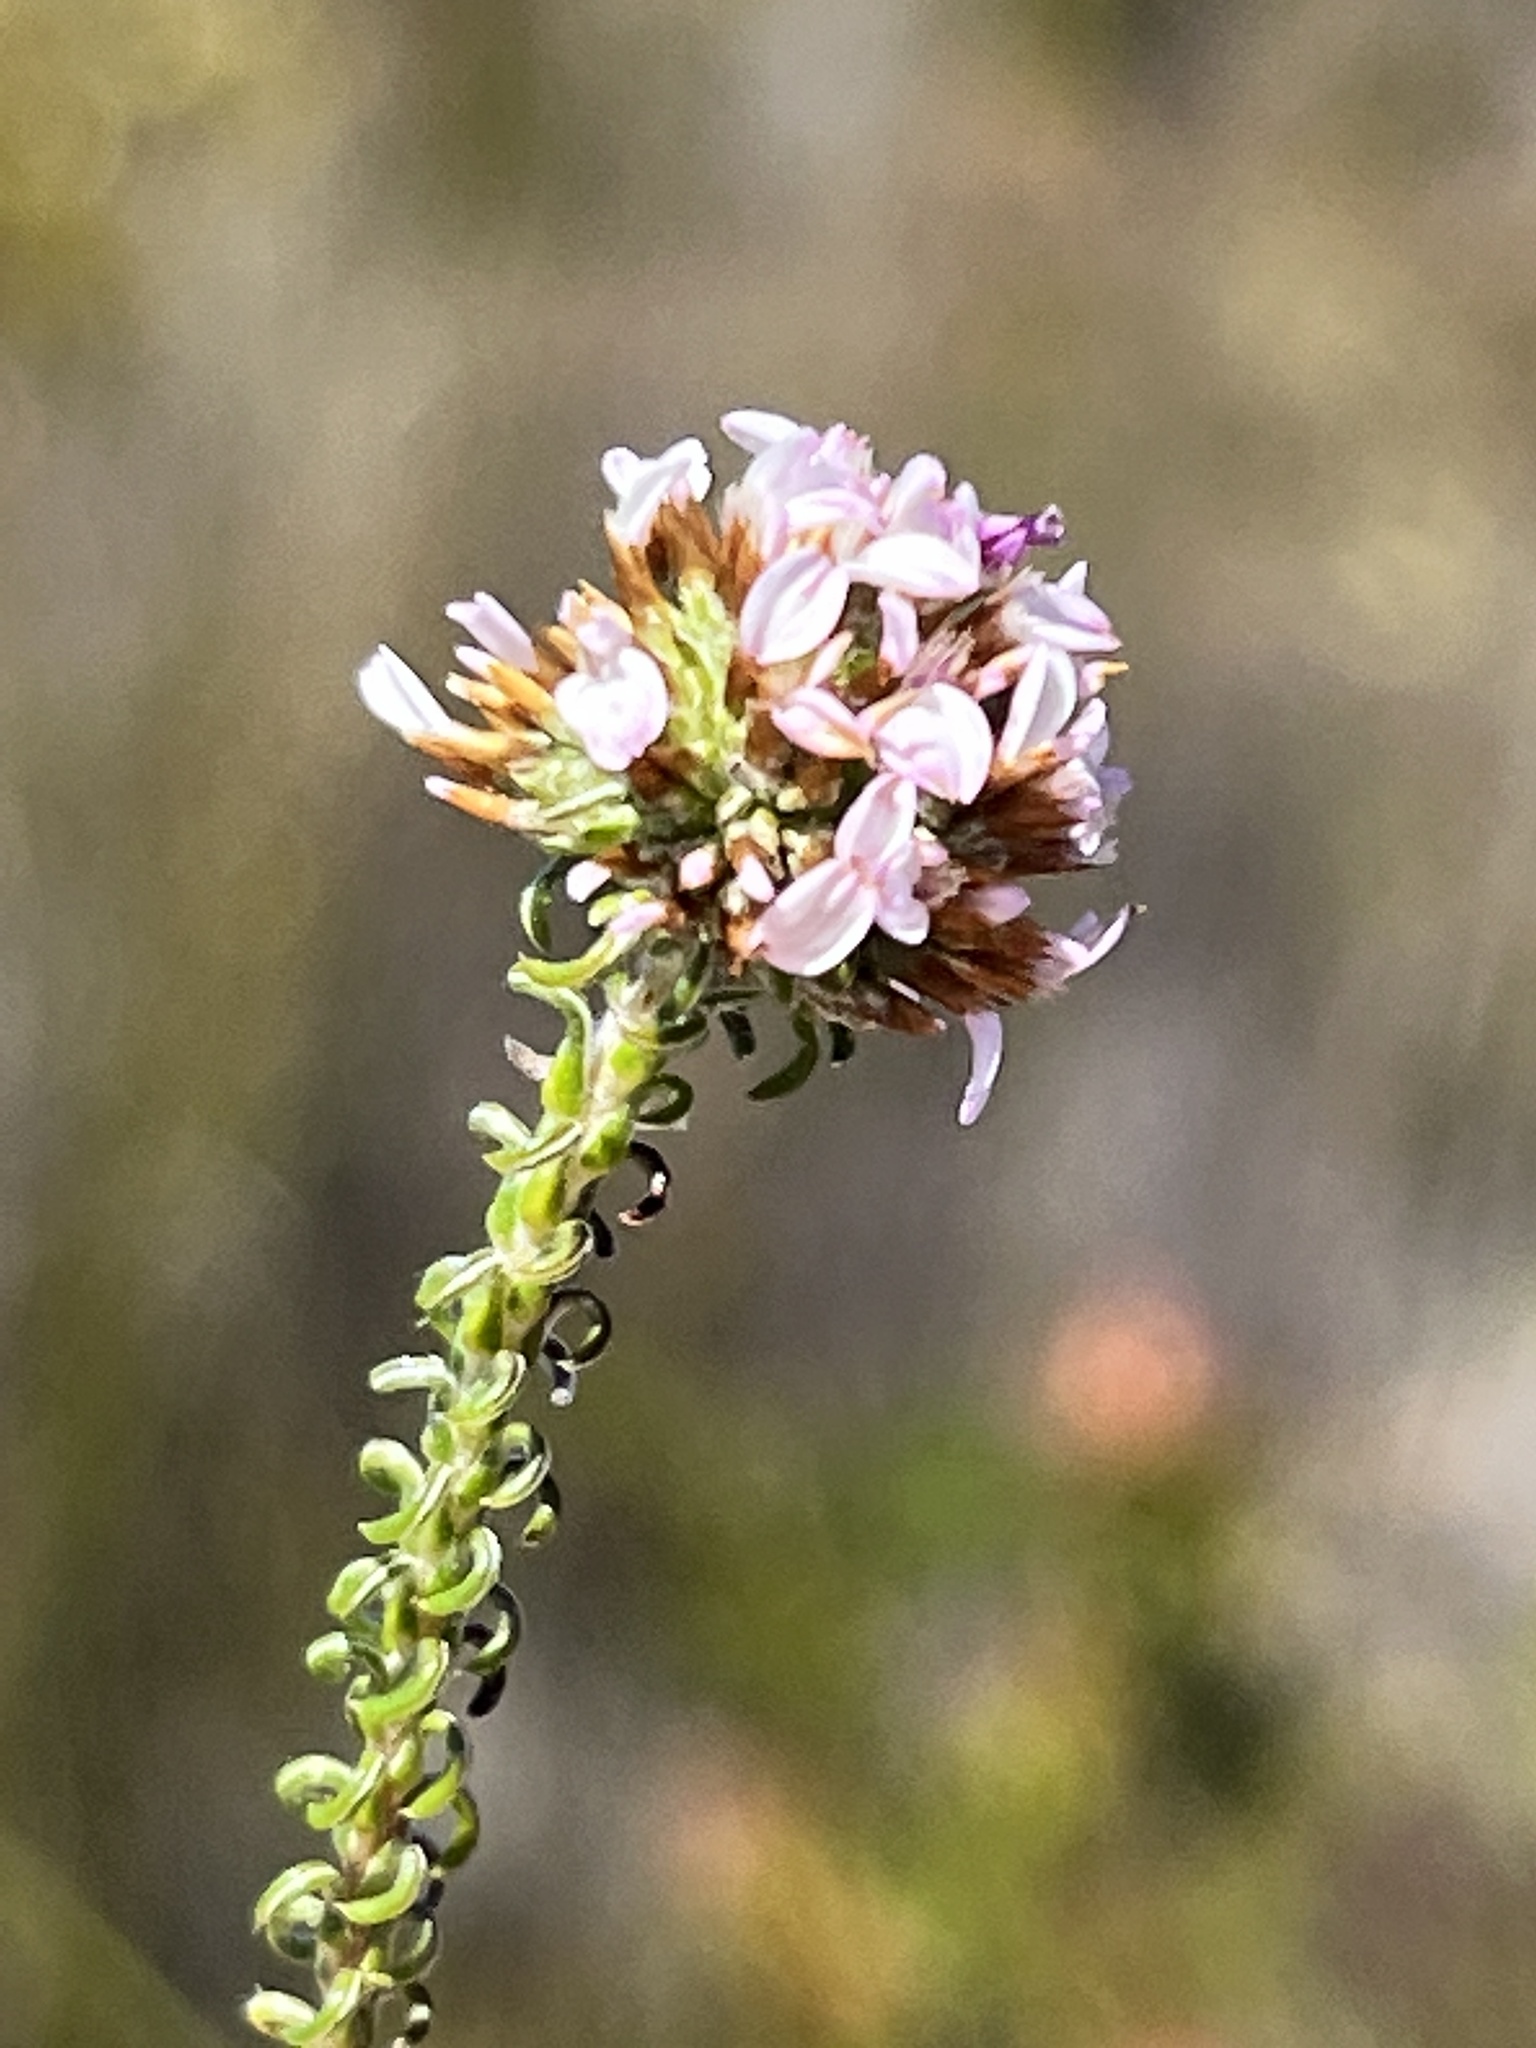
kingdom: Plantae
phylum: Tracheophyta
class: Magnoliopsida
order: Asterales
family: Asteraceae
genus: Disparago
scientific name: Disparago ericoides
